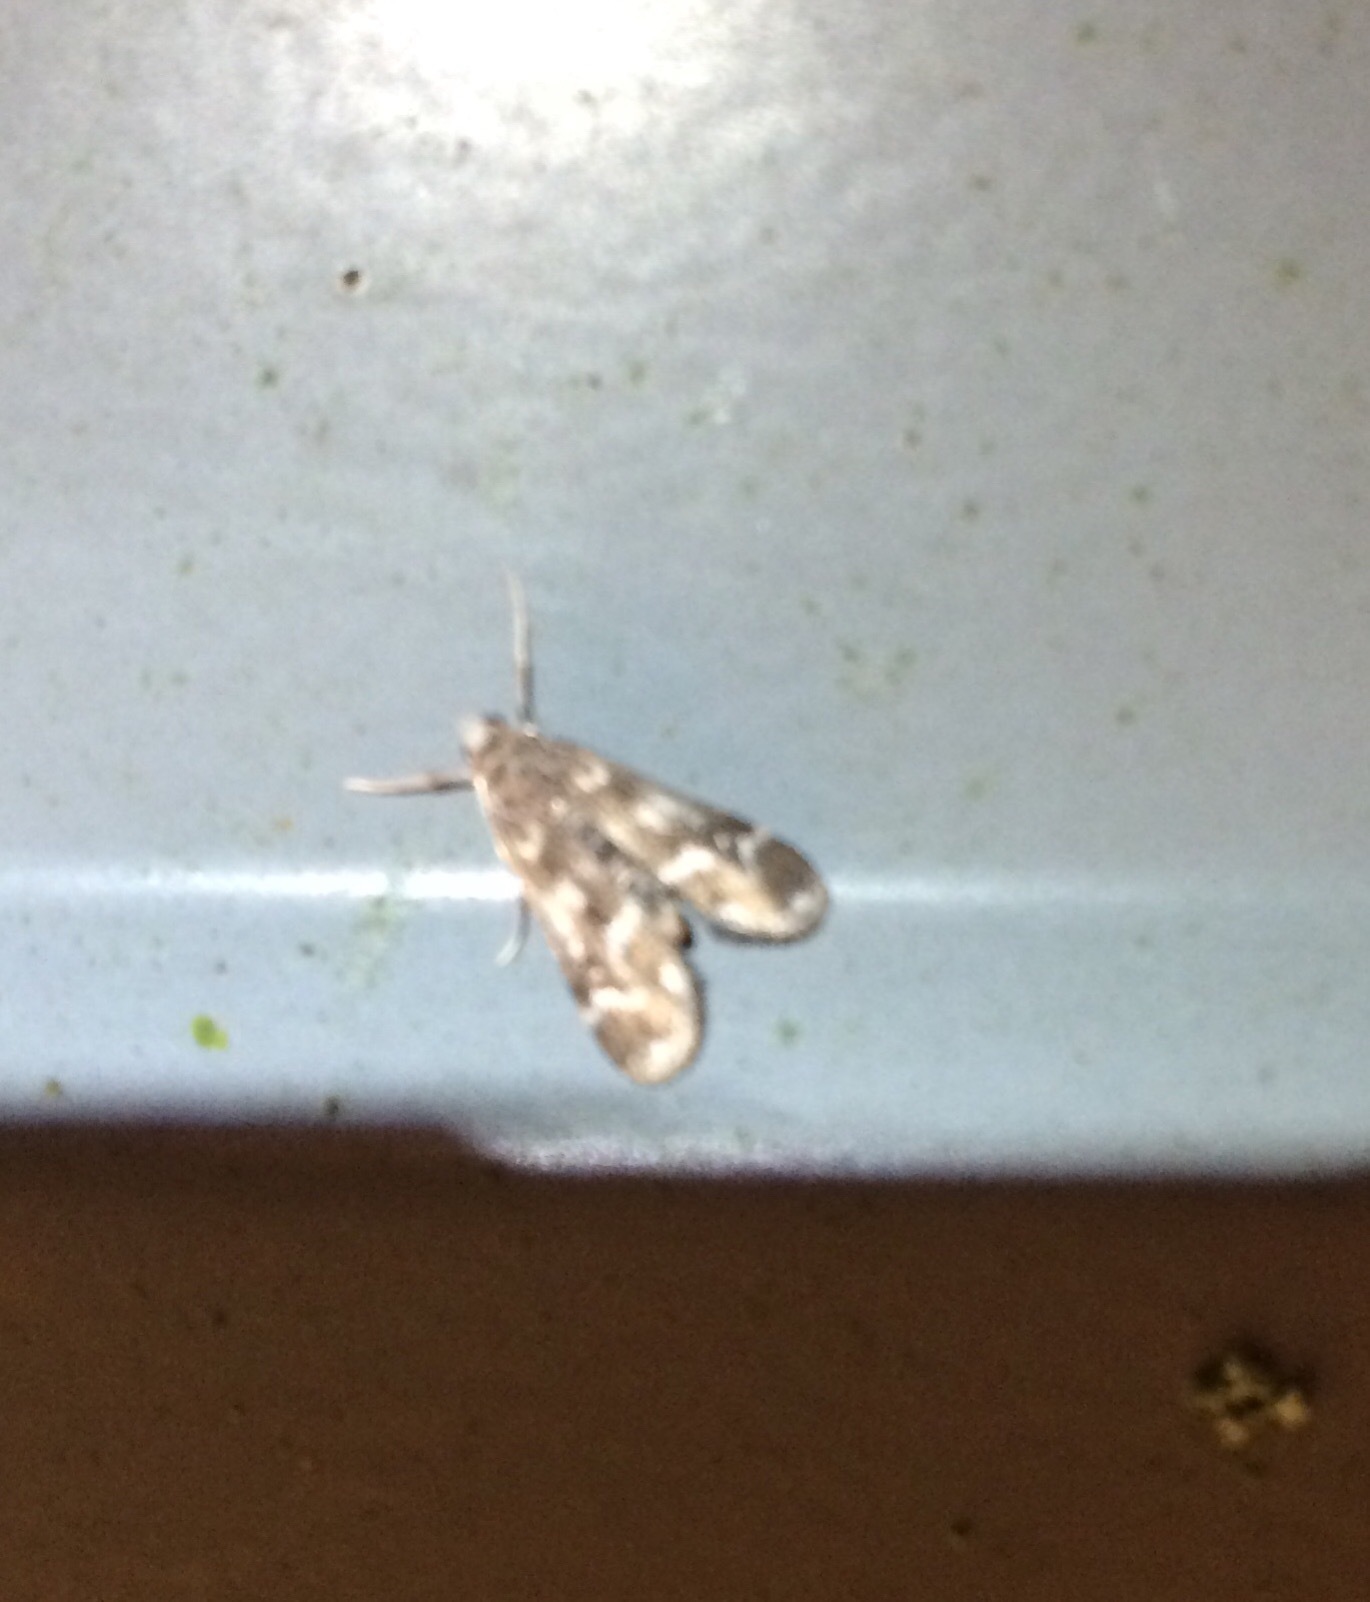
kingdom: Animalia
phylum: Arthropoda
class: Insecta
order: Lepidoptera
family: Crambidae
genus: Hygraula
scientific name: Hygraula nitens
